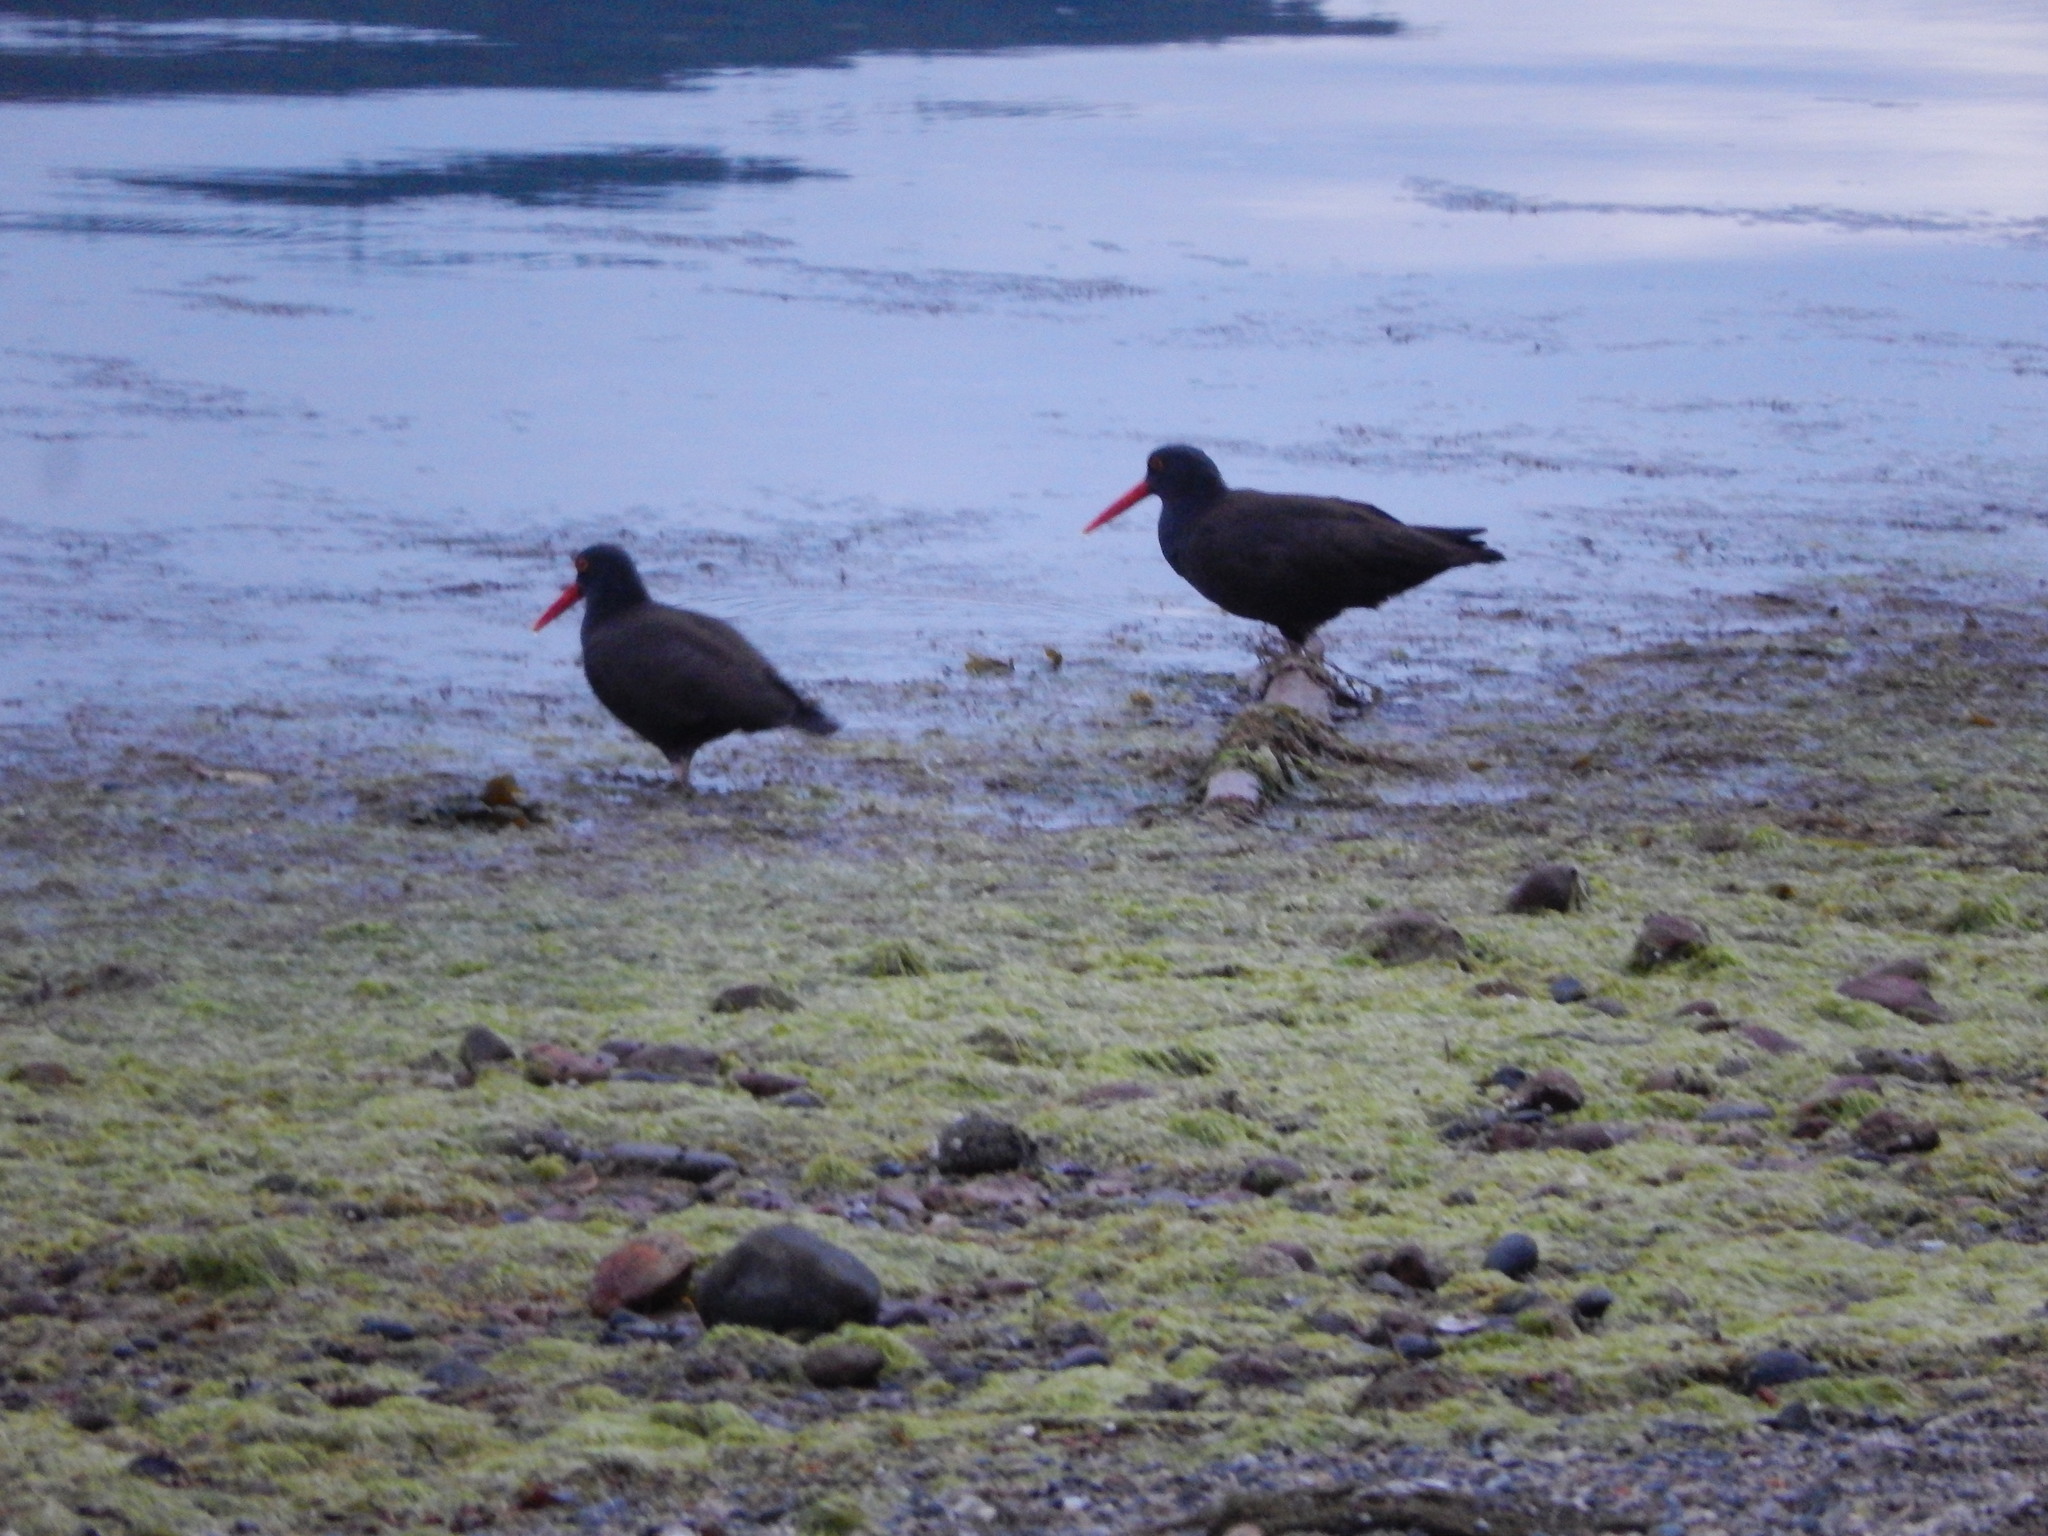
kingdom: Animalia
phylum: Chordata
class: Aves
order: Charadriiformes
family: Haematopodidae
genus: Haematopus
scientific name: Haematopus bachmani
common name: Black oystercatcher
